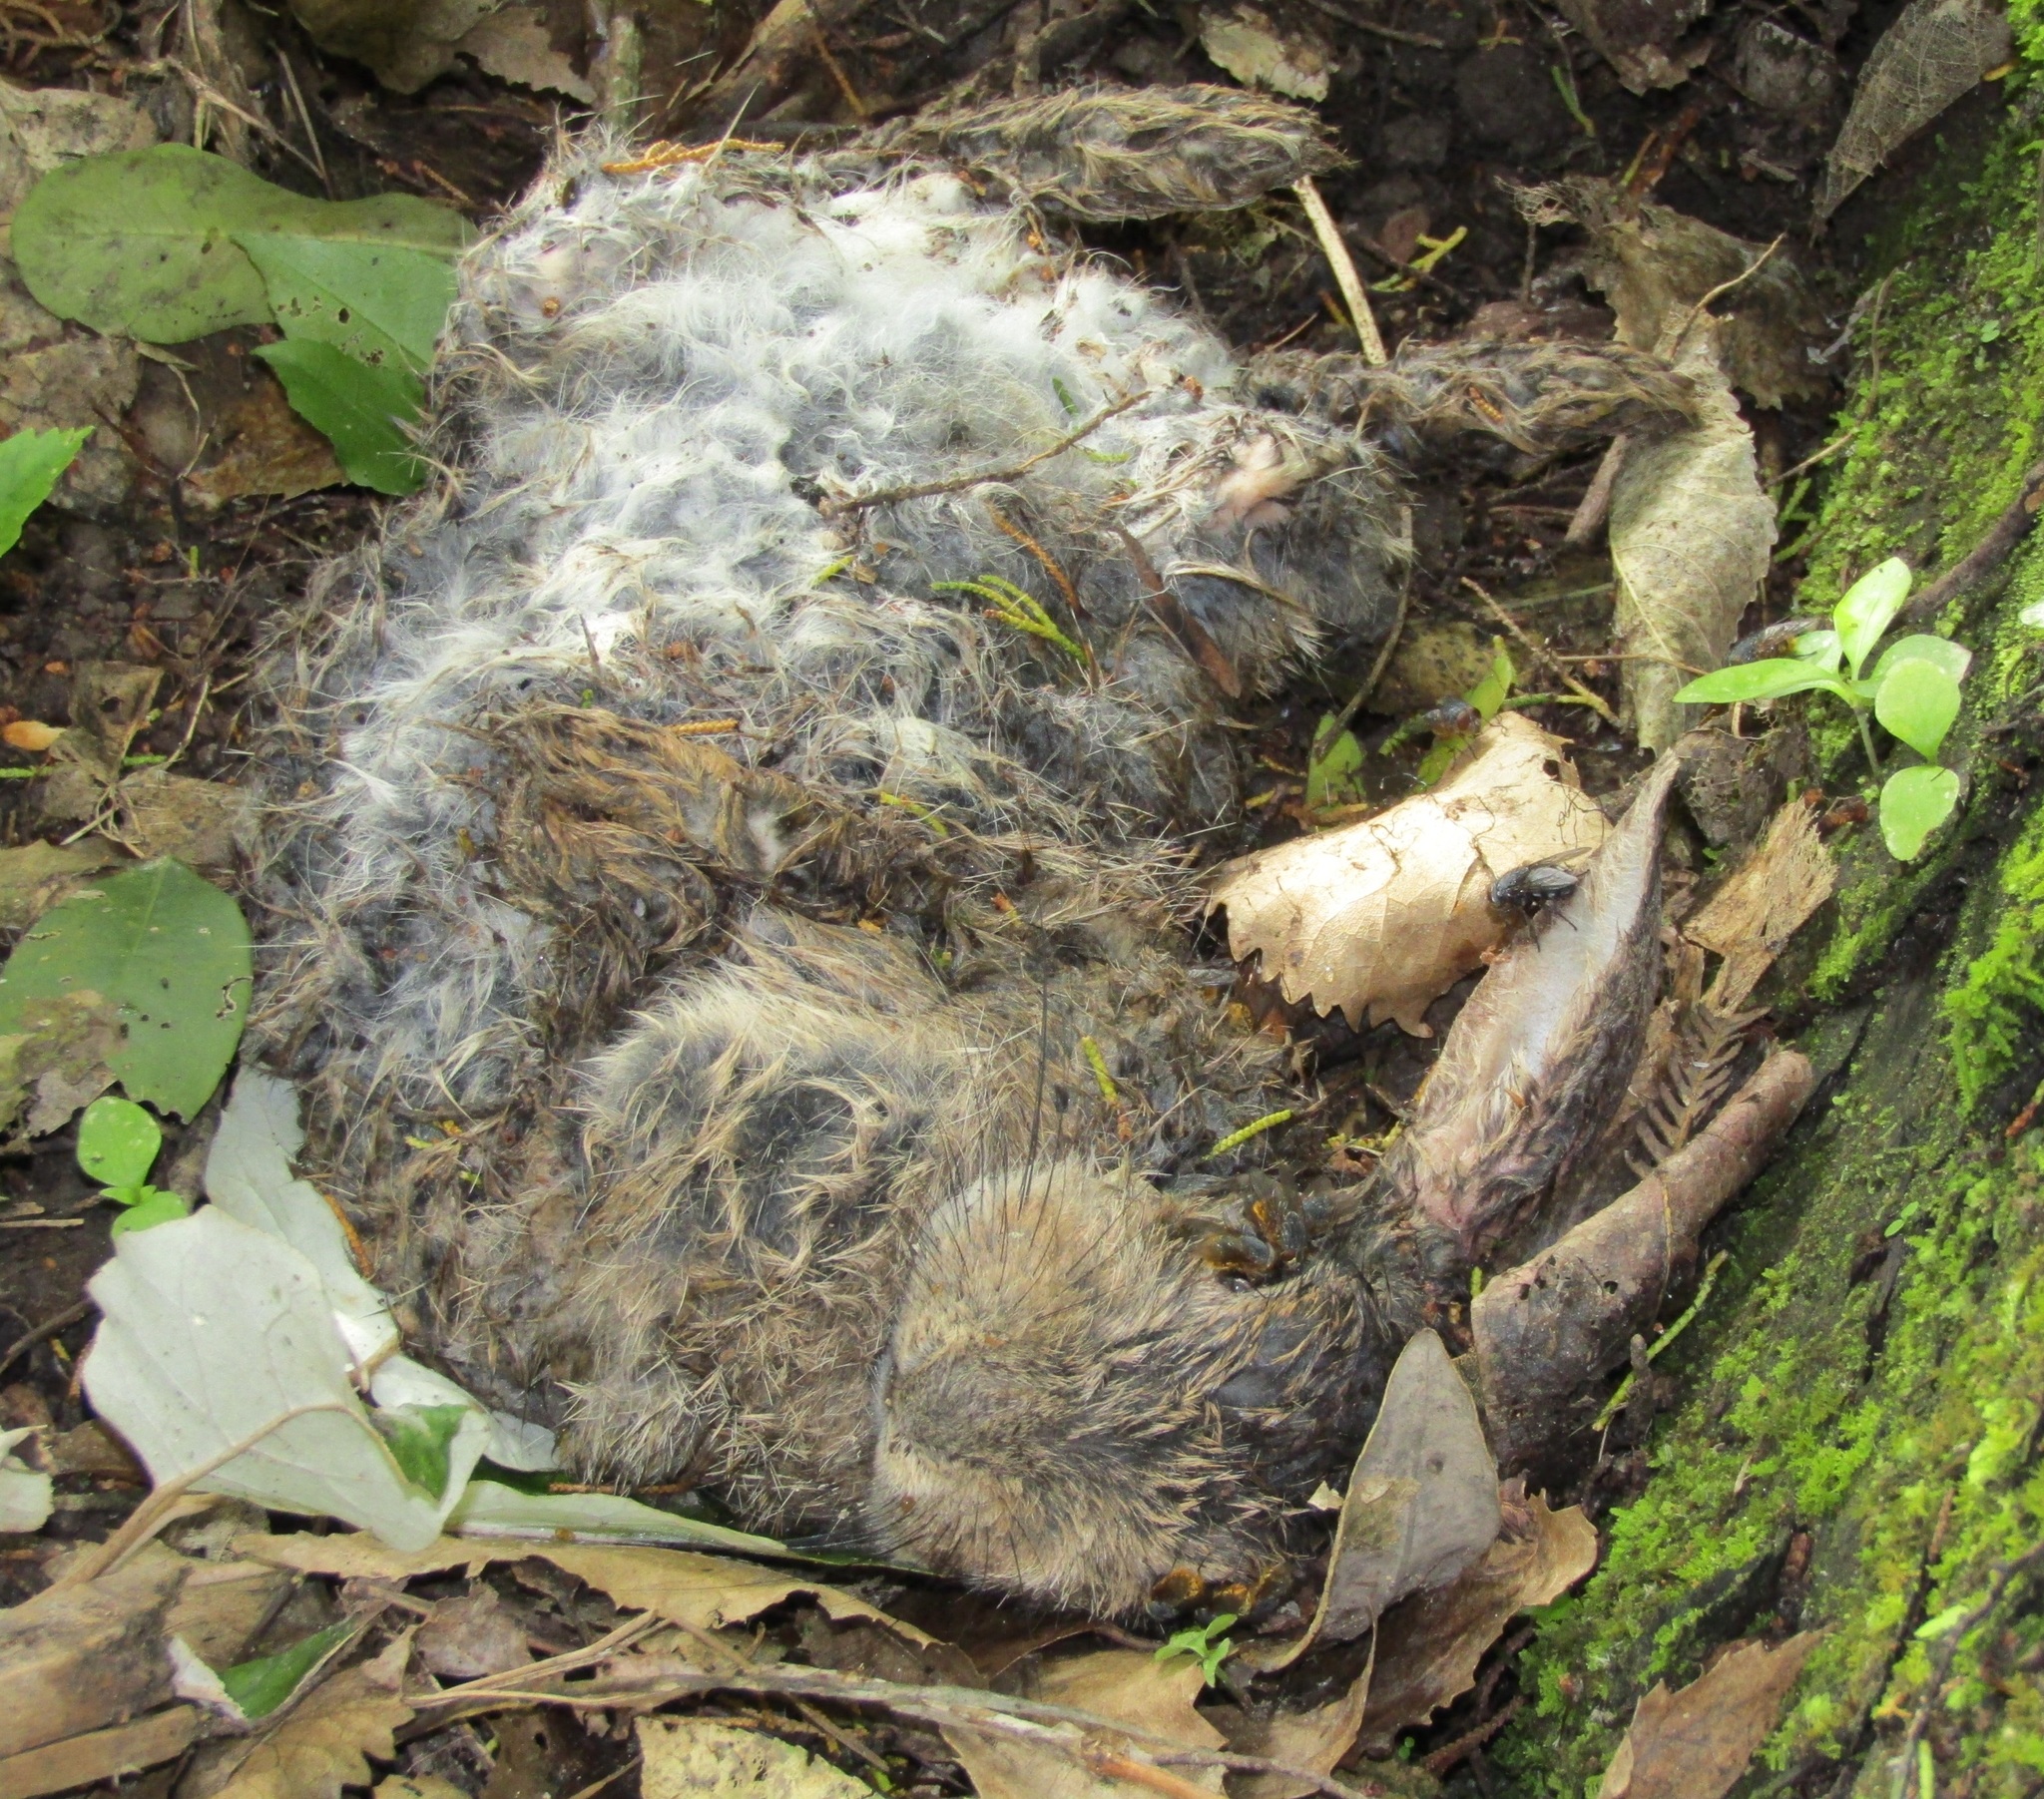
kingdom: Animalia
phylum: Chordata
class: Mammalia
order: Lagomorpha
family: Leporidae
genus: Oryctolagus
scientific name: Oryctolagus cuniculus
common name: European rabbit
